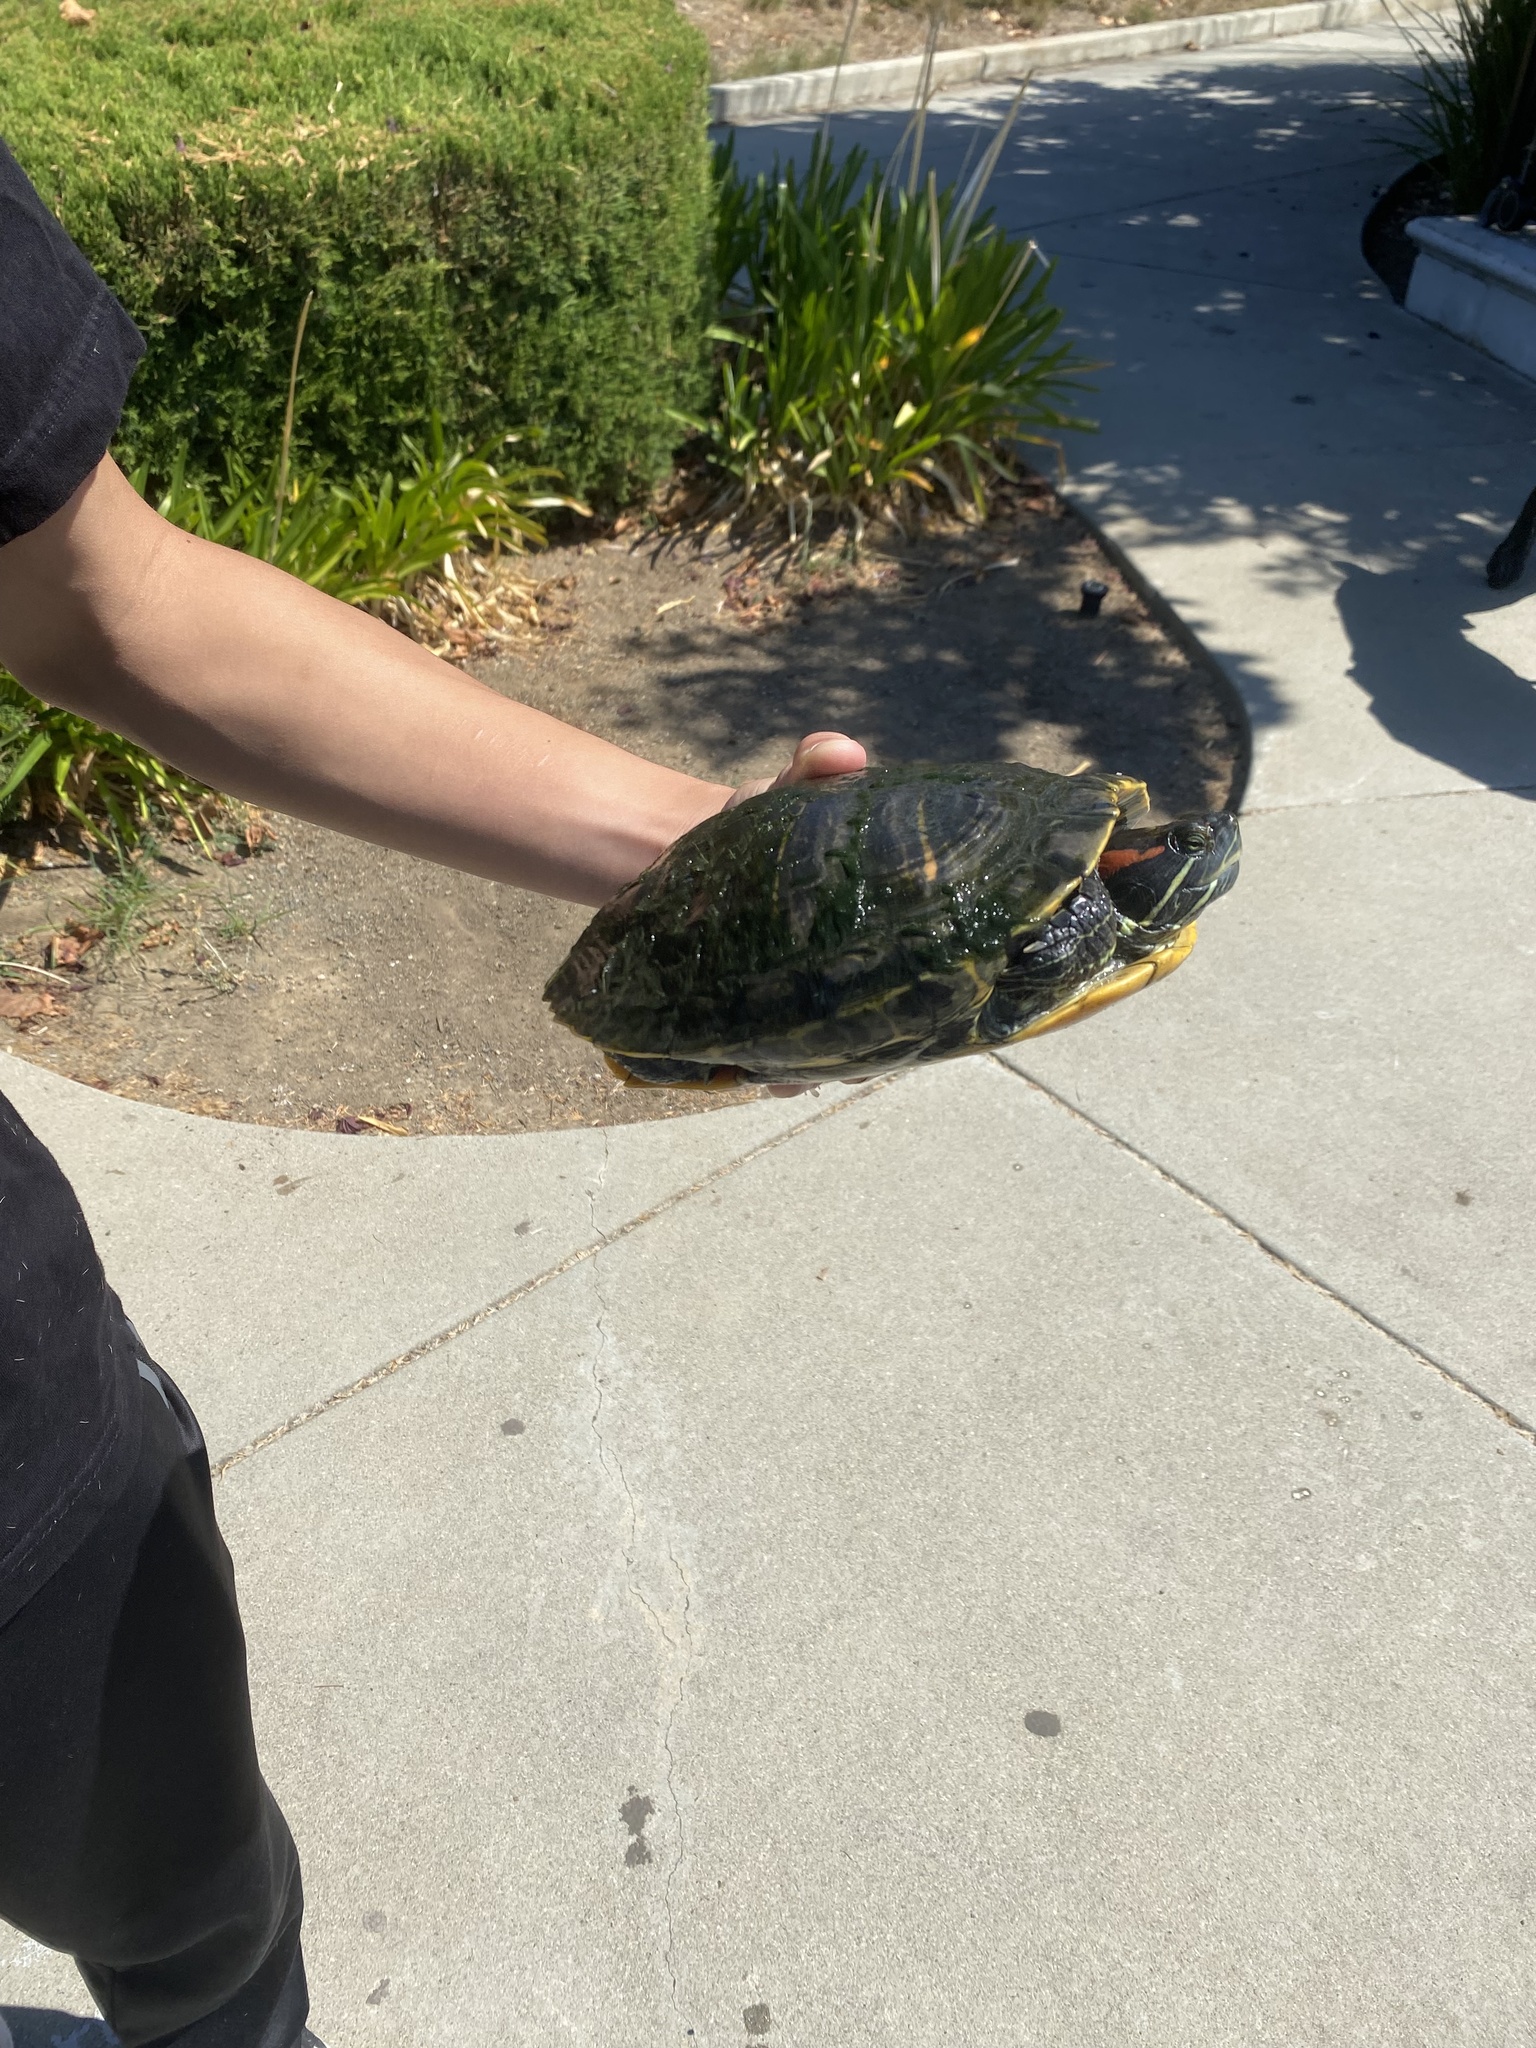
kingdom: Animalia
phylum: Chordata
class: Testudines
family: Emydidae
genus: Trachemys
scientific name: Trachemys scripta
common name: Slider
